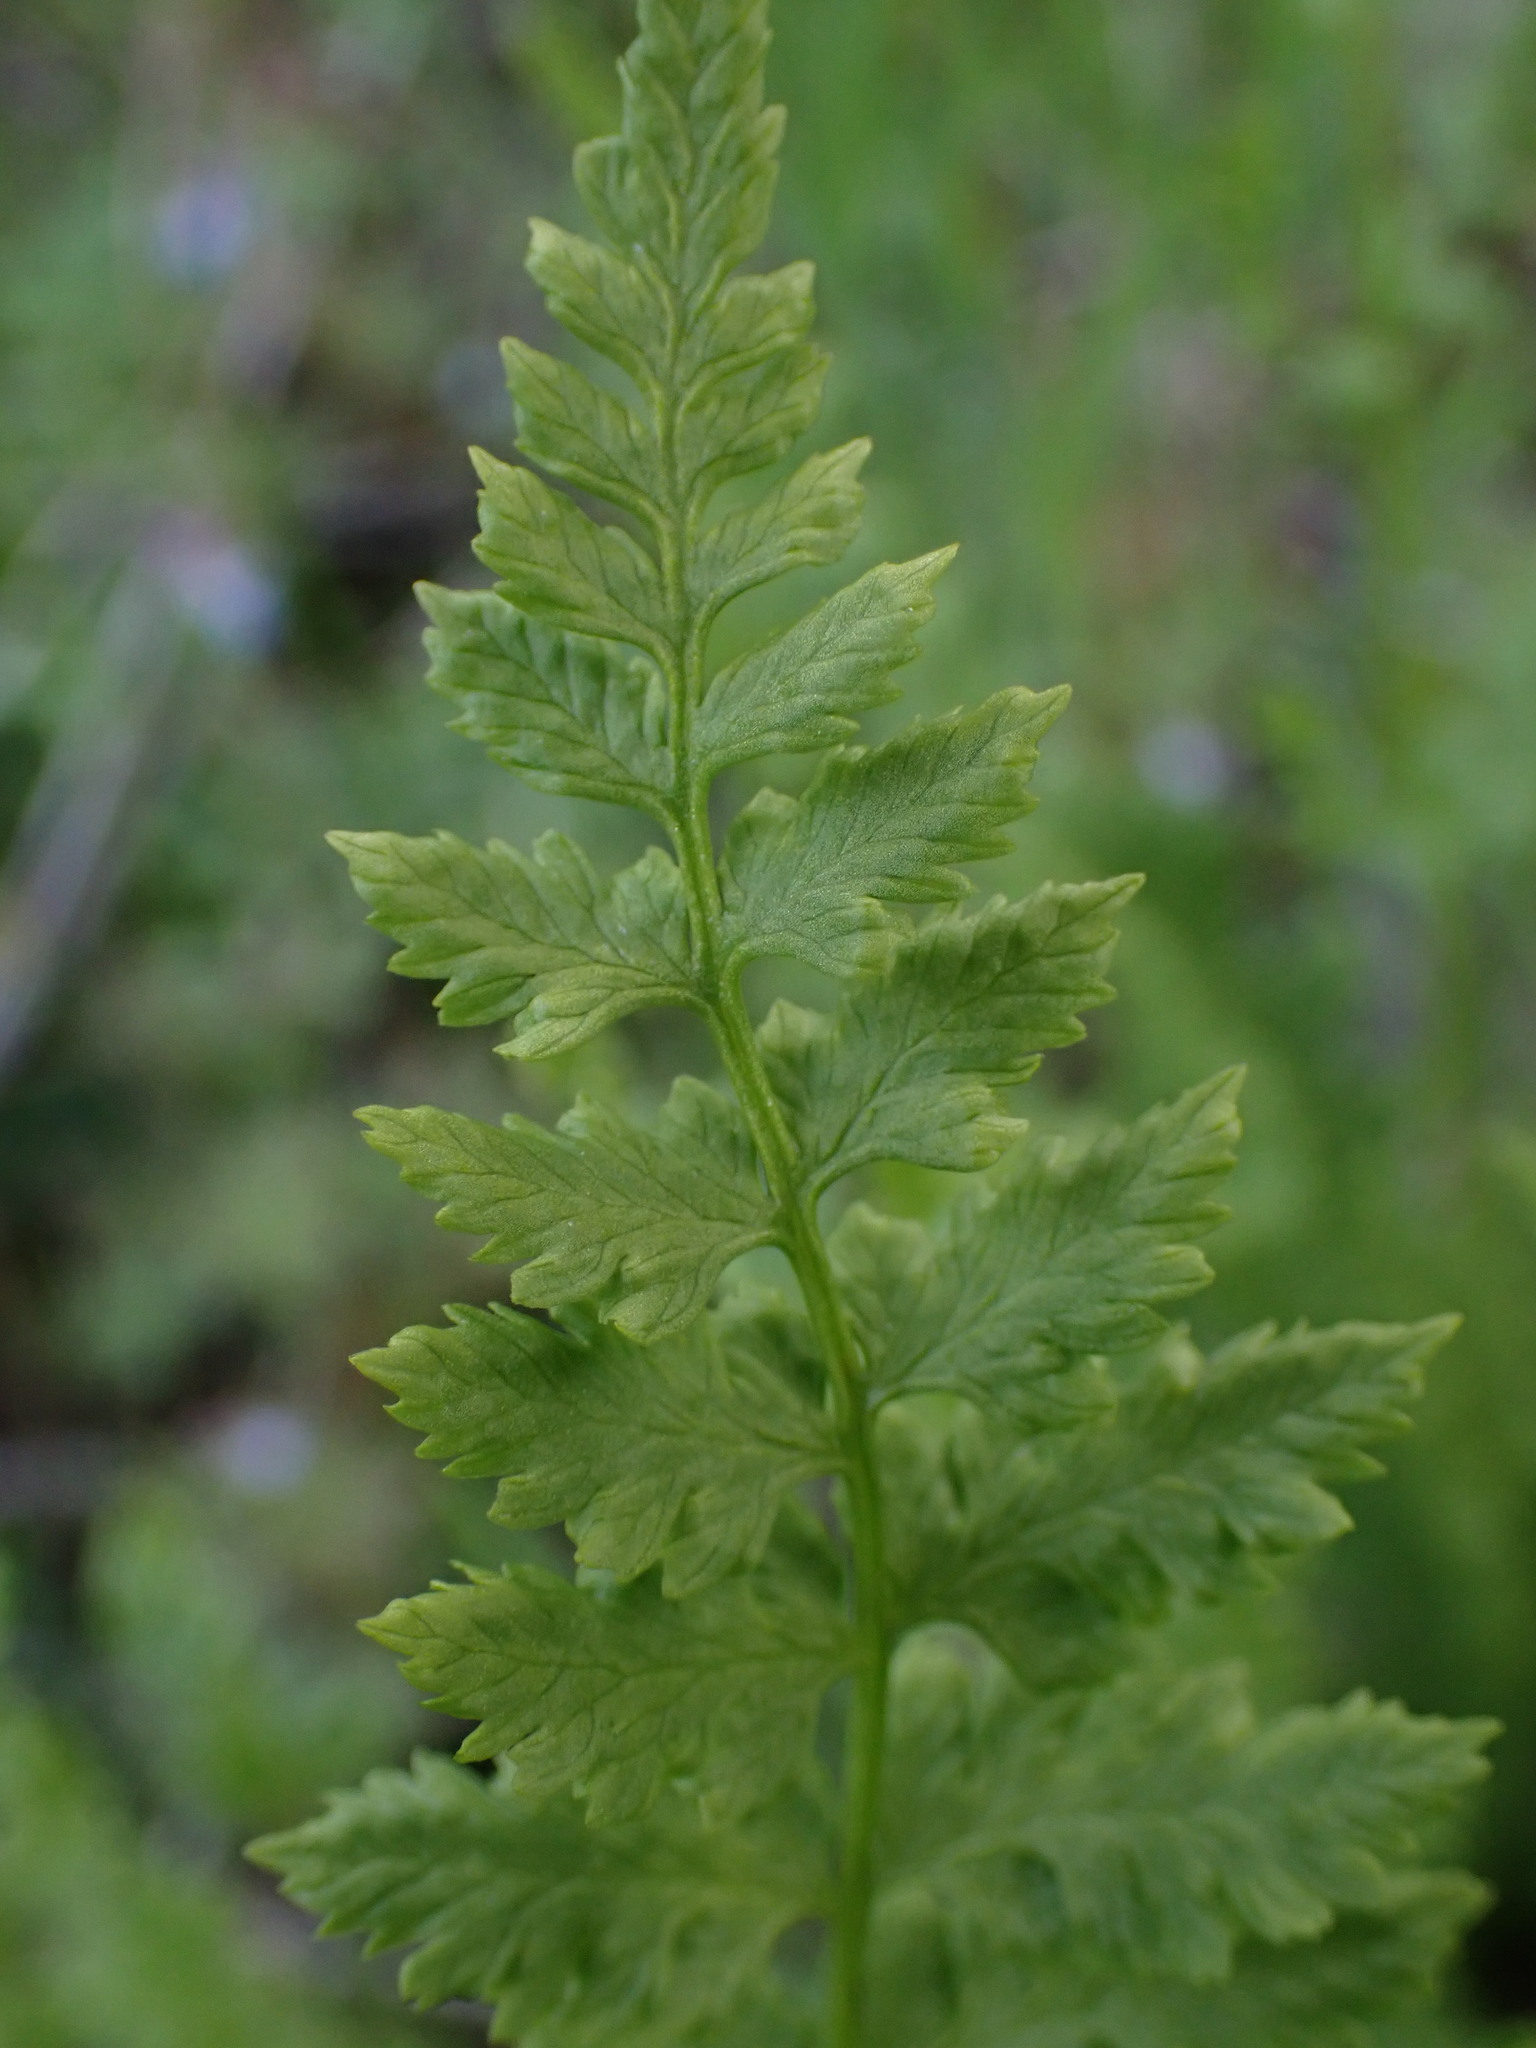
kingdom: Plantae
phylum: Tracheophyta
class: Polypodiopsida
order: Polypodiales
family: Cystopteridaceae
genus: Cystopteris
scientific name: Cystopteris fragilis
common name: Brittle bladder fern
